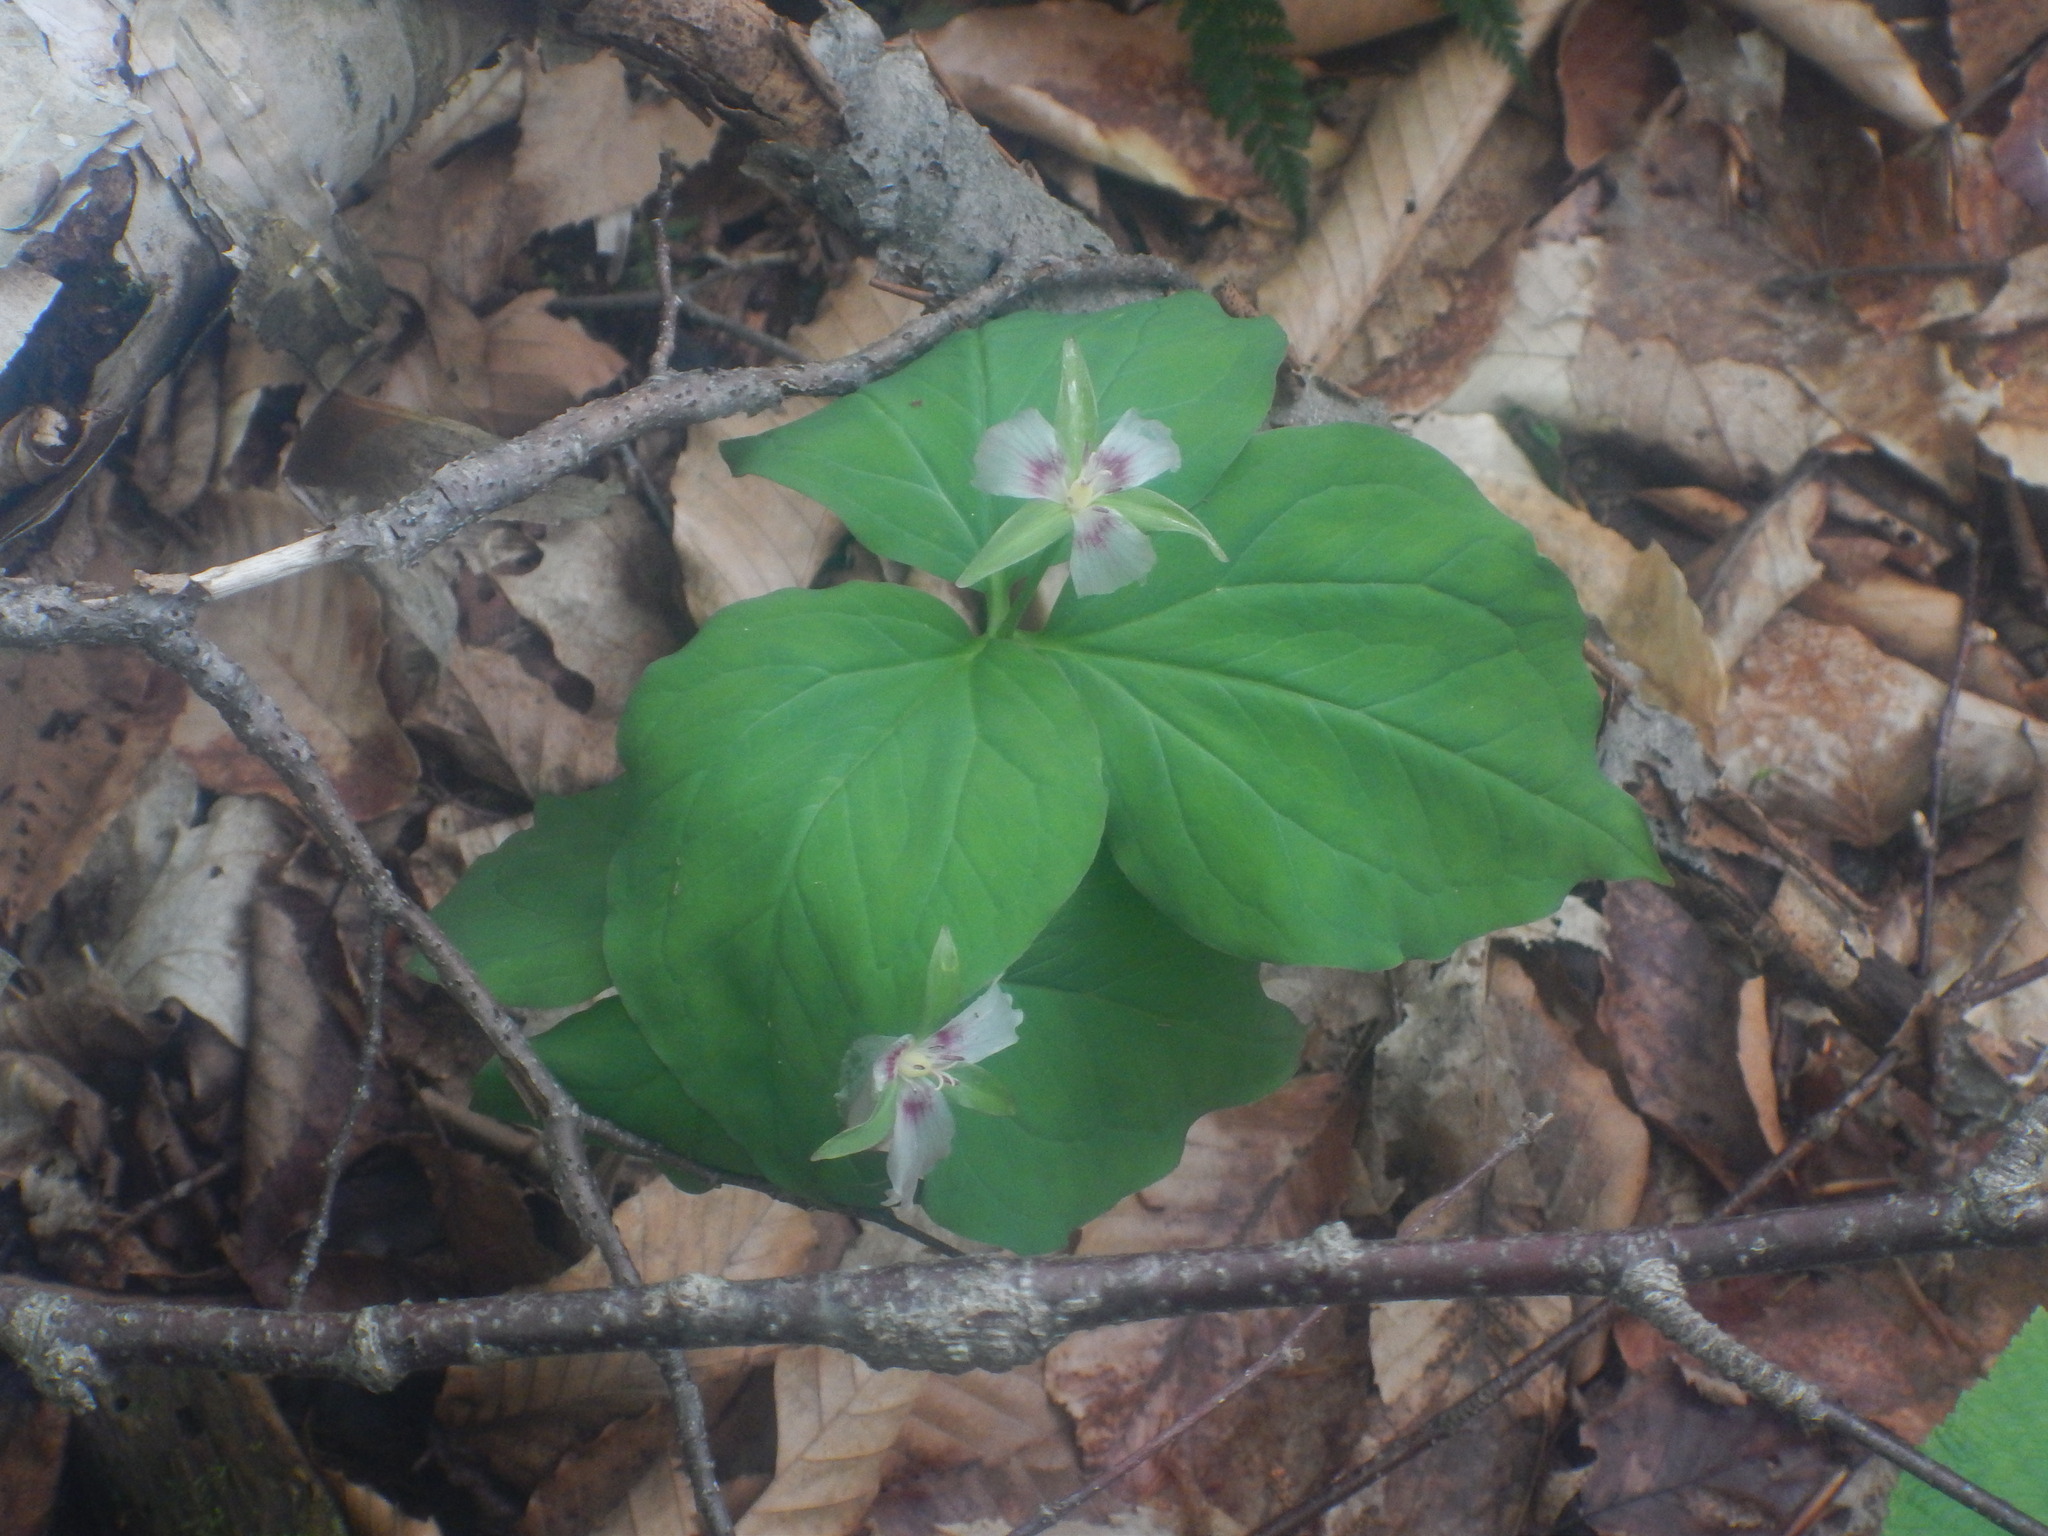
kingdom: Plantae
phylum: Tracheophyta
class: Liliopsida
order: Liliales
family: Melanthiaceae
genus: Trillium
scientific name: Trillium undulatum
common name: Paint trillium
